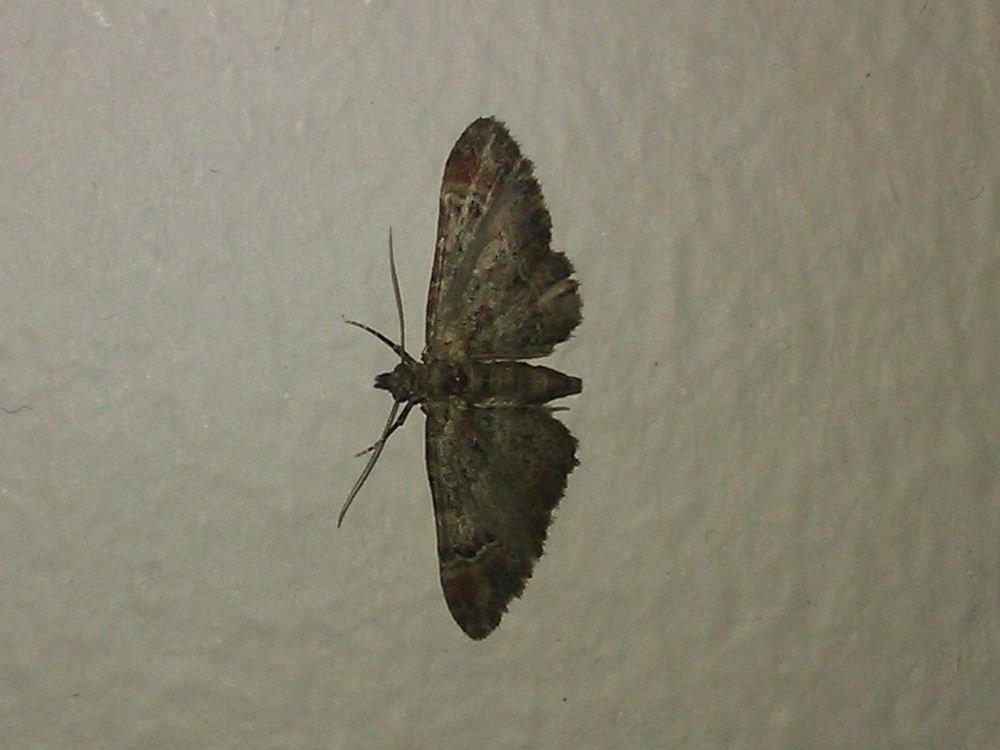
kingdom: Animalia
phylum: Arthropoda
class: Insecta
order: Lepidoptera
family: Geometridae
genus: Gymnoscelis
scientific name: Gymnoscelis rufifasciata
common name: Double-striped pug
